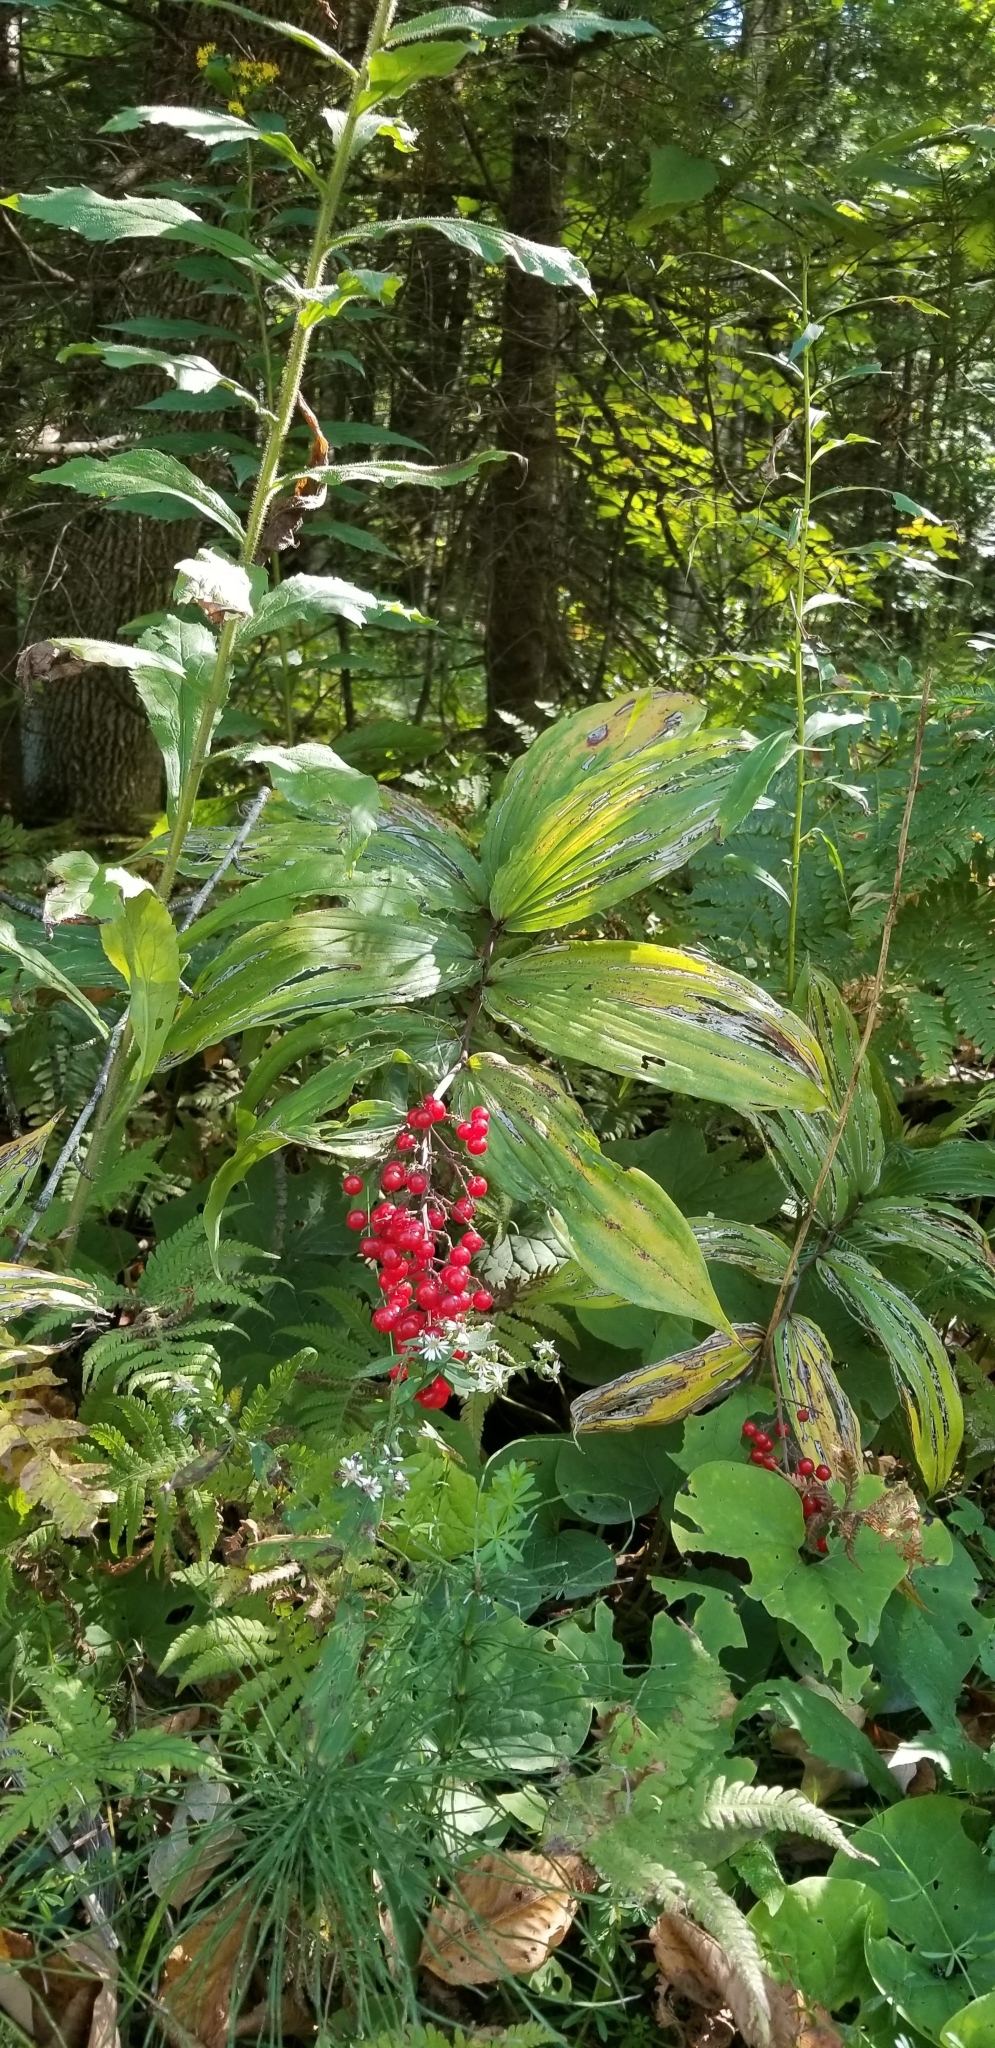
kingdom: Plantae
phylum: Tracheophyta
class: Liliopsida
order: Asparagales
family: Asparagaceae
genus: Maianthemum
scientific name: Maianthemum racemosum
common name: False spikenard
